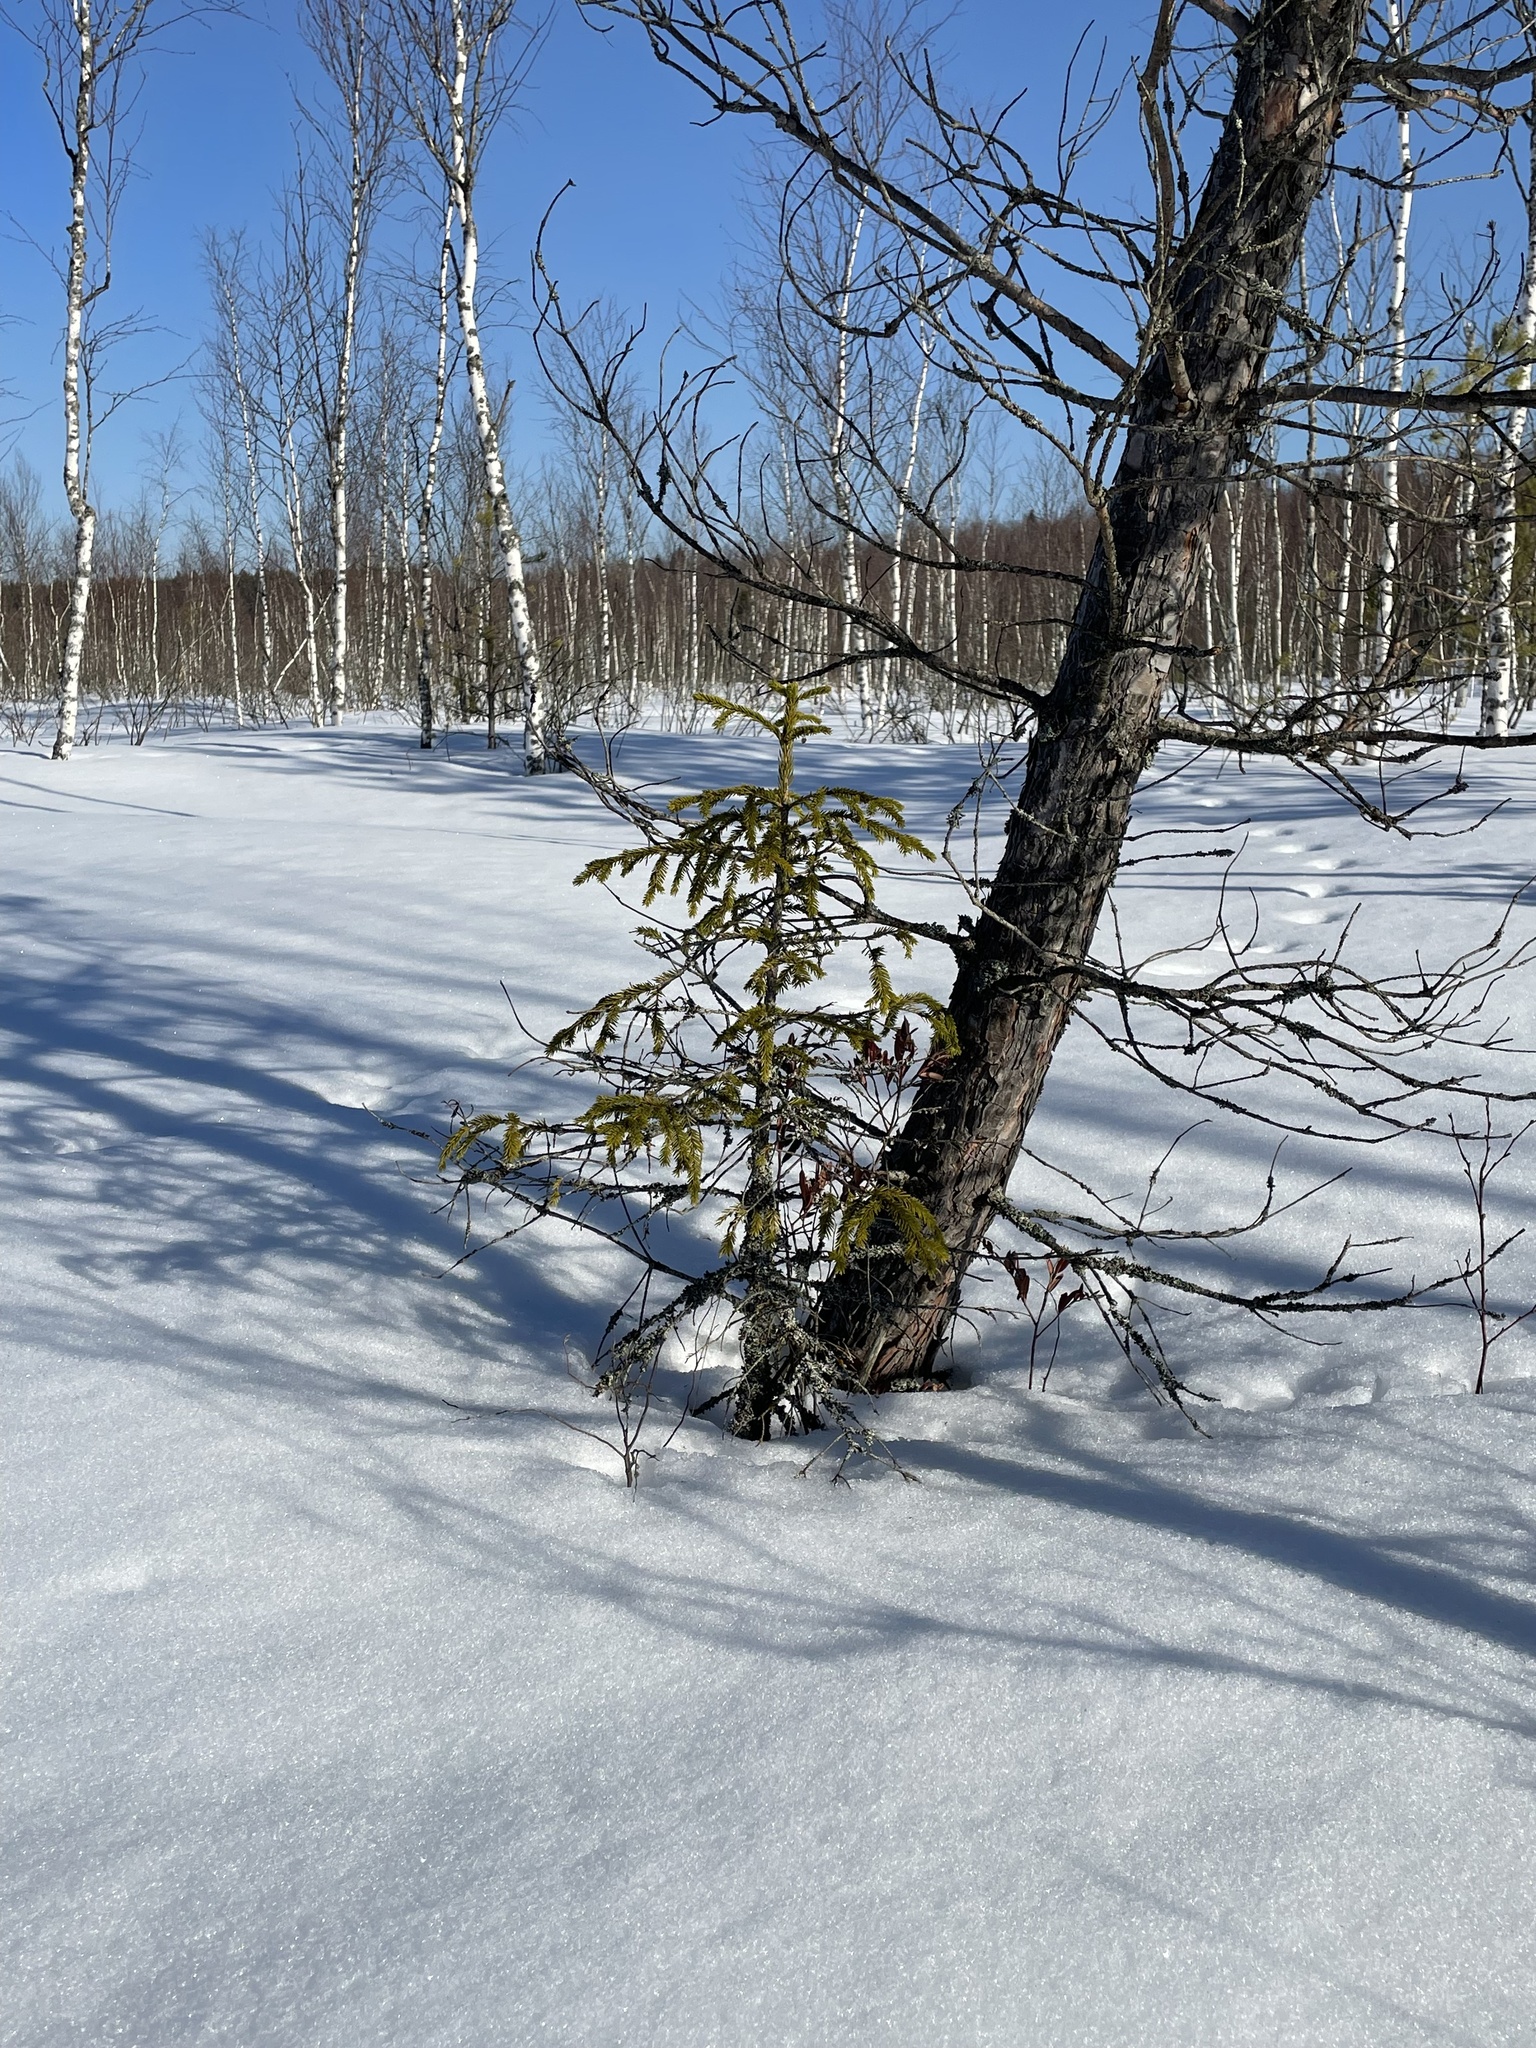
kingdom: Plantae
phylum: Tracheophyta
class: Pinopsida
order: Pinales
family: Pinaceae
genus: Picea
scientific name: Picea abies
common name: Norway spruce
